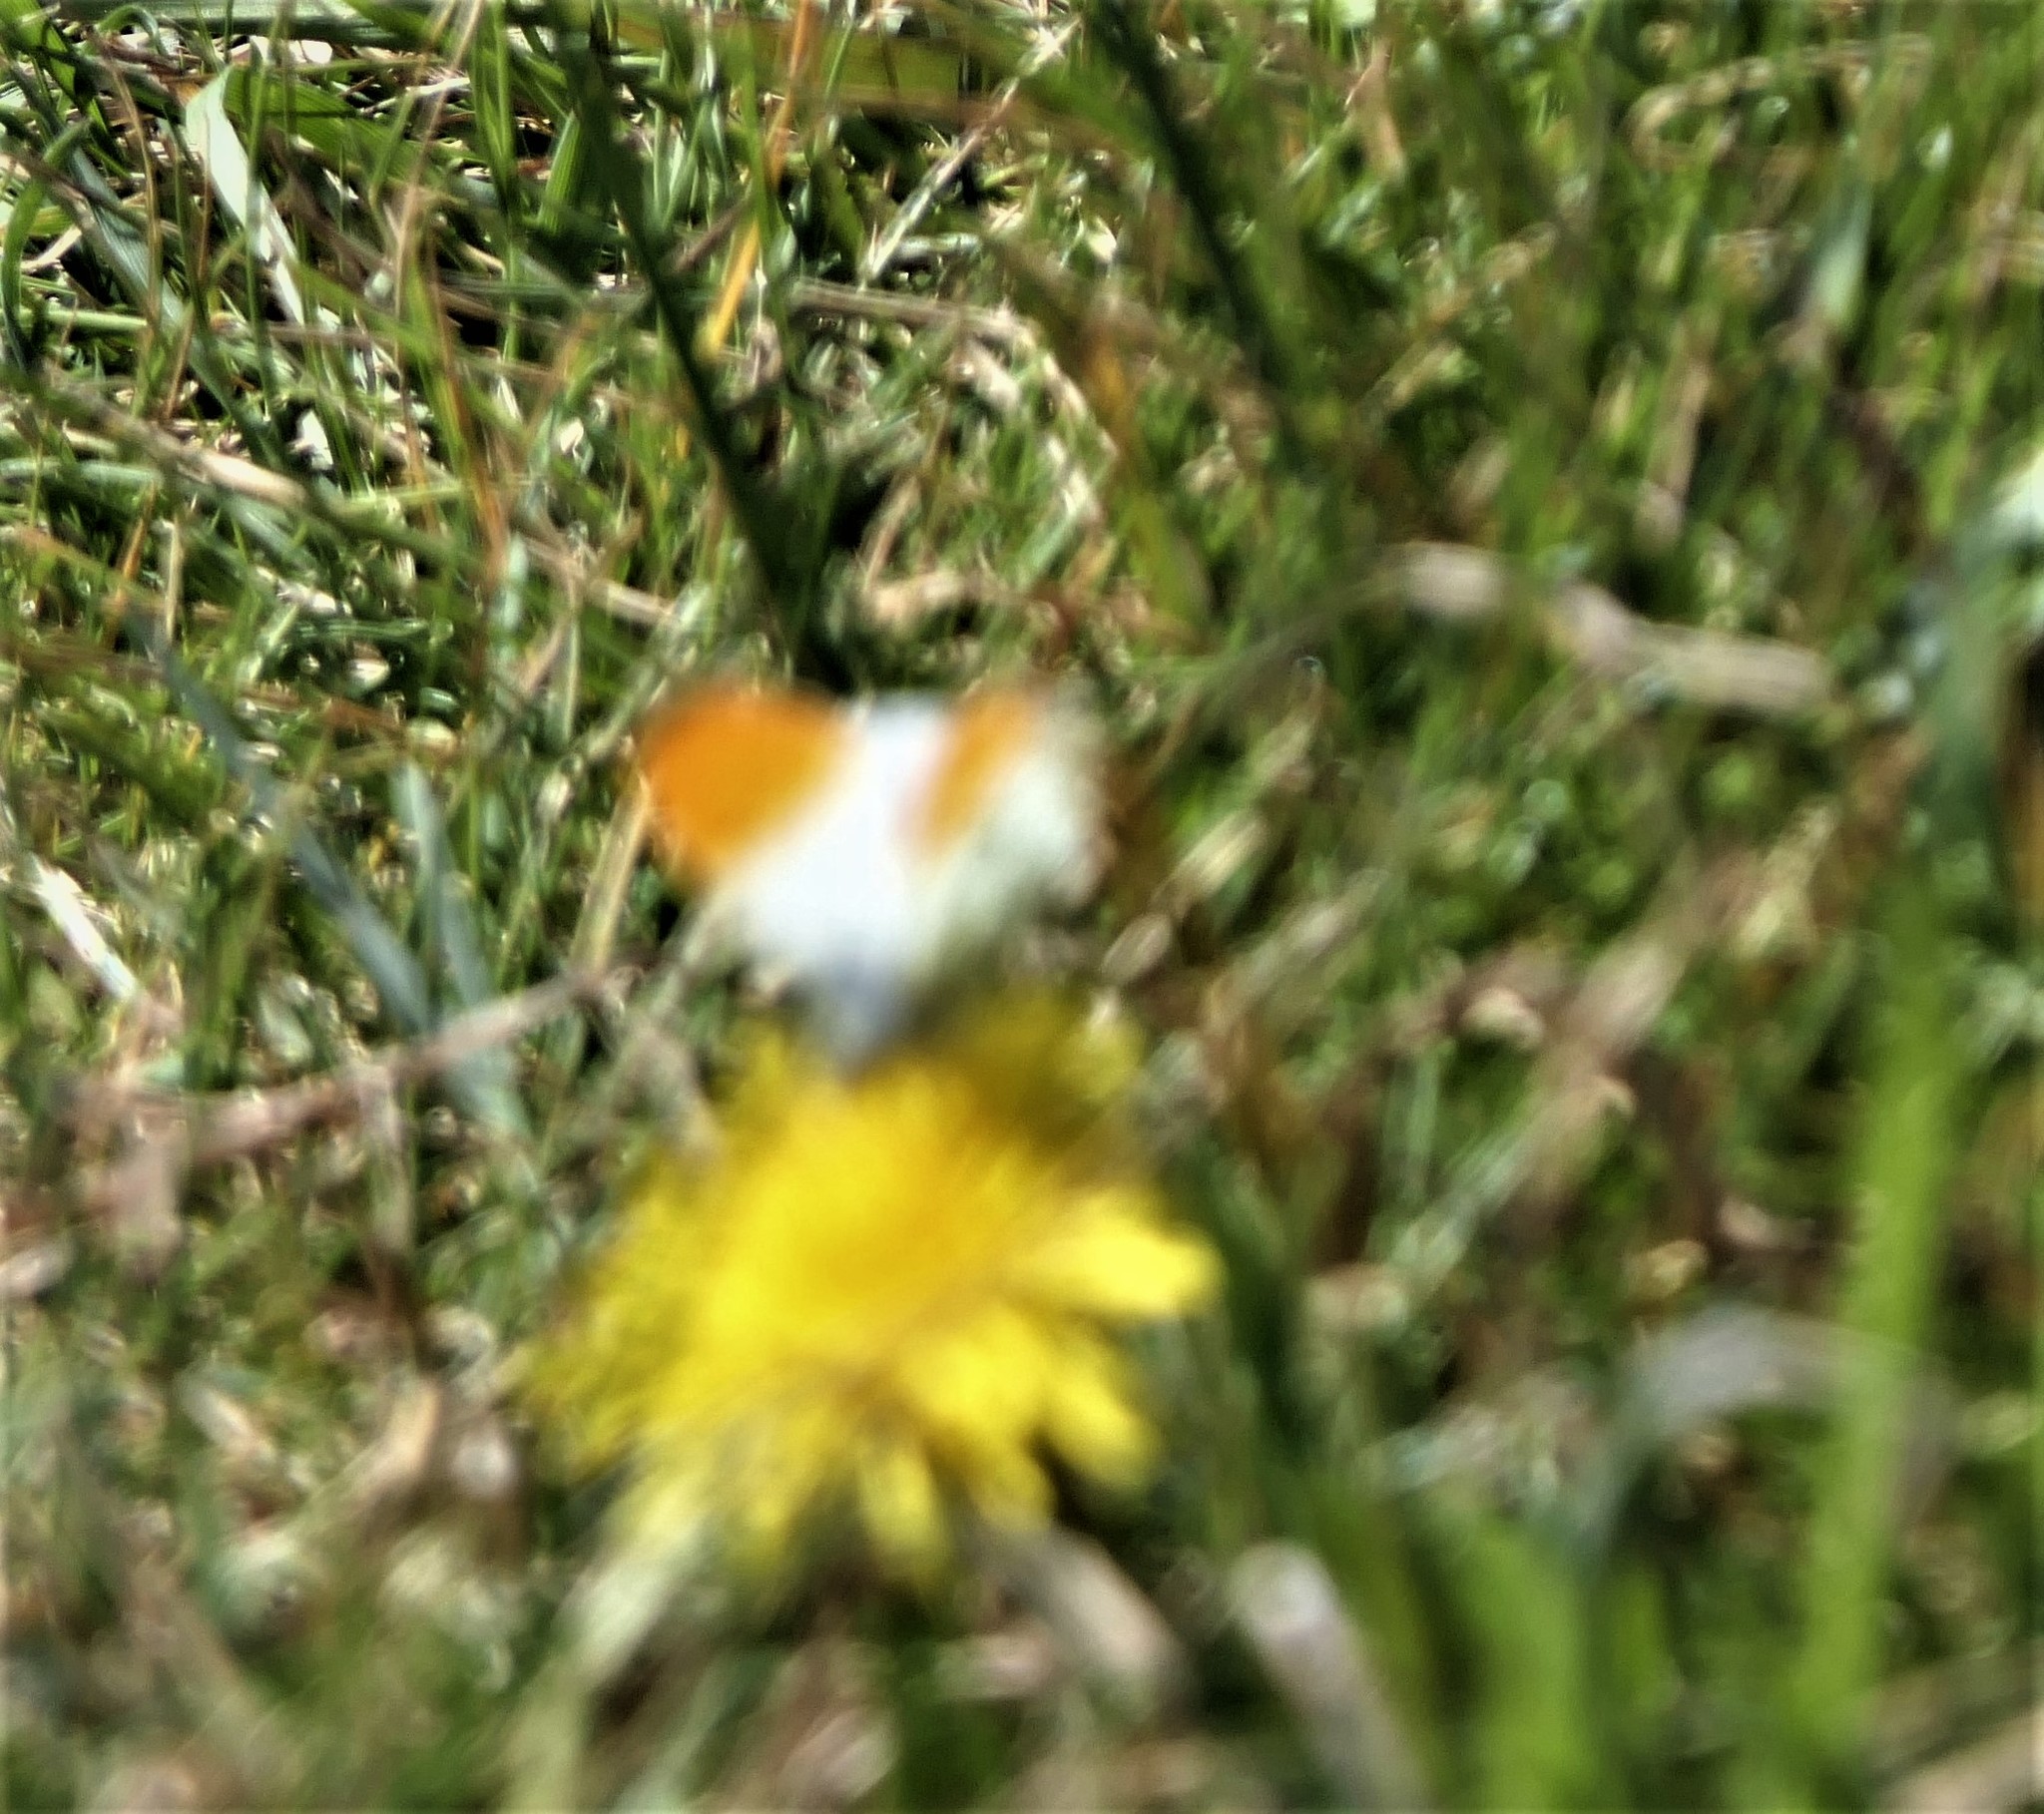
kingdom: Animalia
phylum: Arthropoda
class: Insecta
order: Lepidoptera
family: Pieridae
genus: Anthocharis
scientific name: Anthocharis cardamines
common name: Orange-tip
